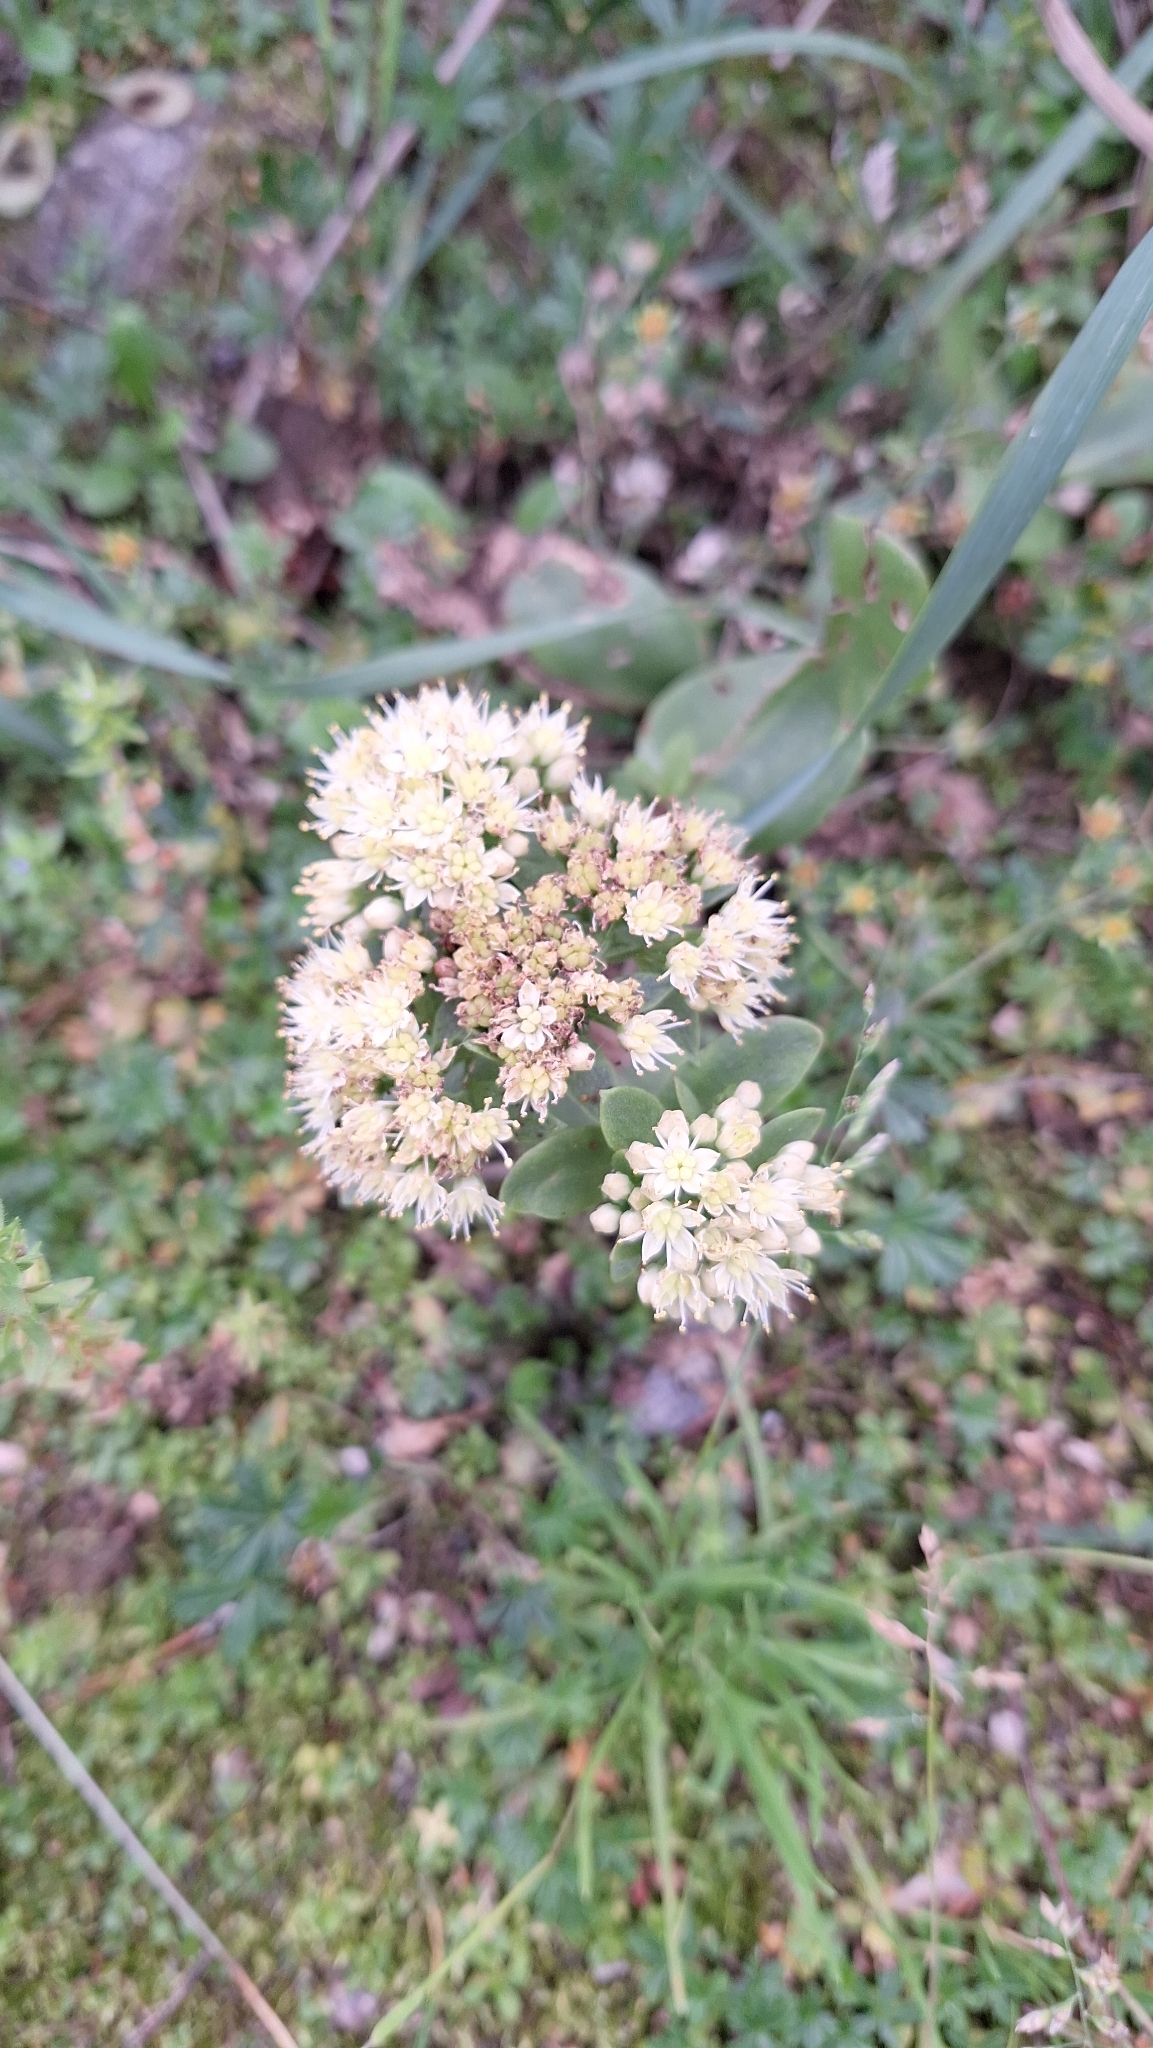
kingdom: Plantae
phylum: Tracheophyta
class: Magnoliopsida
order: Saxifragales
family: Crassulaceae
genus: Hylotelephium
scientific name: Hylotelephium maximum
